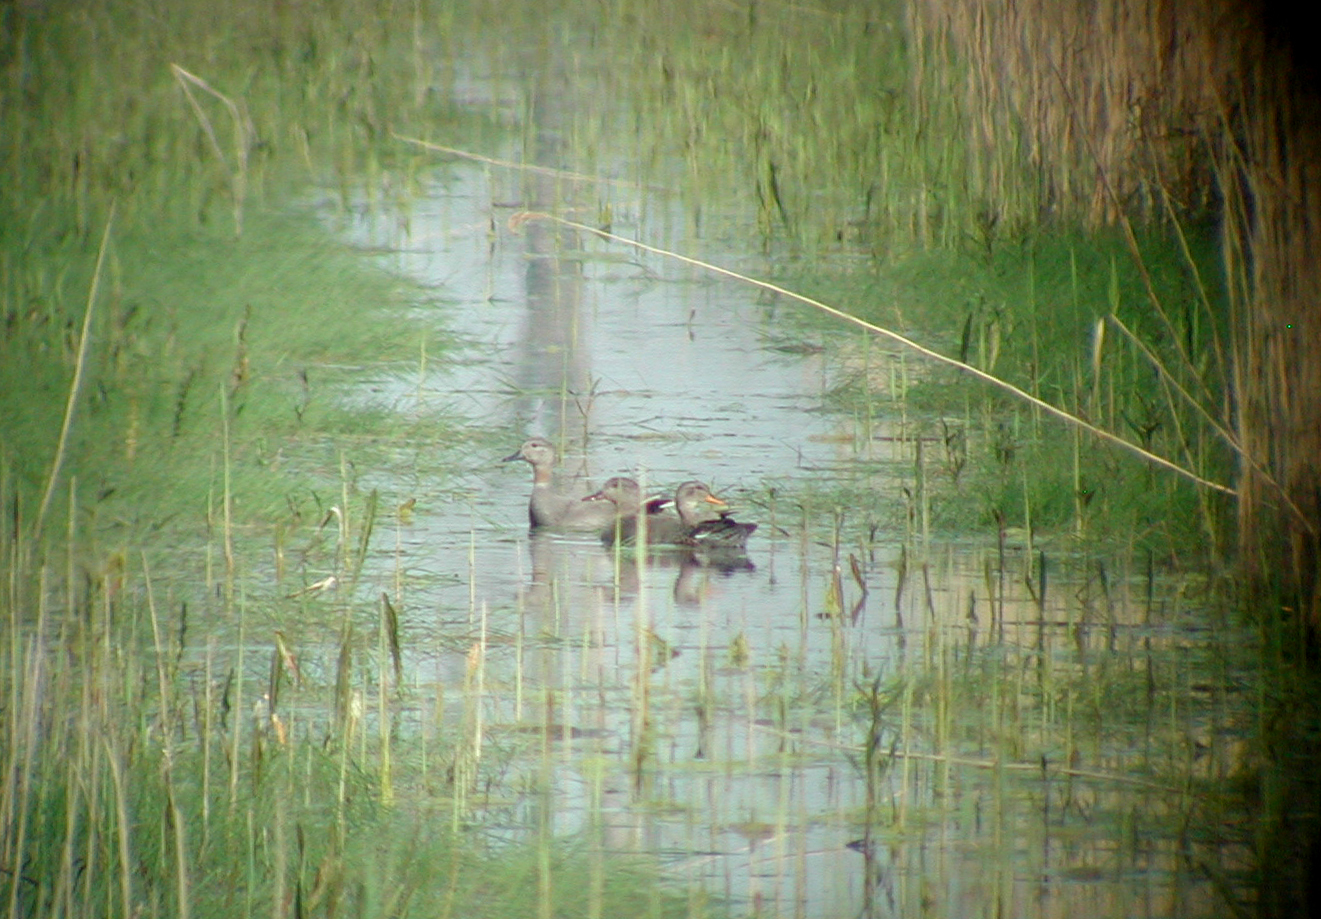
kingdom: Animalia
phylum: Chordata
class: Aves
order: Anseriformes
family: Anatidae
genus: Mareca
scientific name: Mareca strepera
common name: Gadwall
